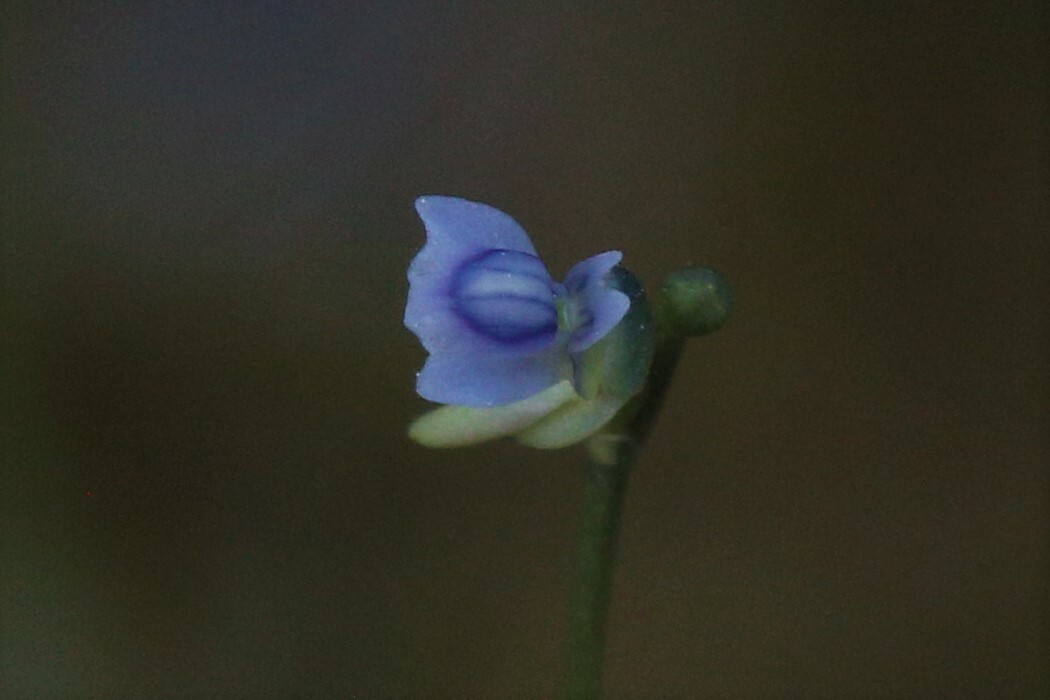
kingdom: Plantae
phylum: Tracheophyta
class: Magnoliopsida
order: Lamiales
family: Lentibulariaceae
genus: Utricularia
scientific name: Utricularia uliginosa
